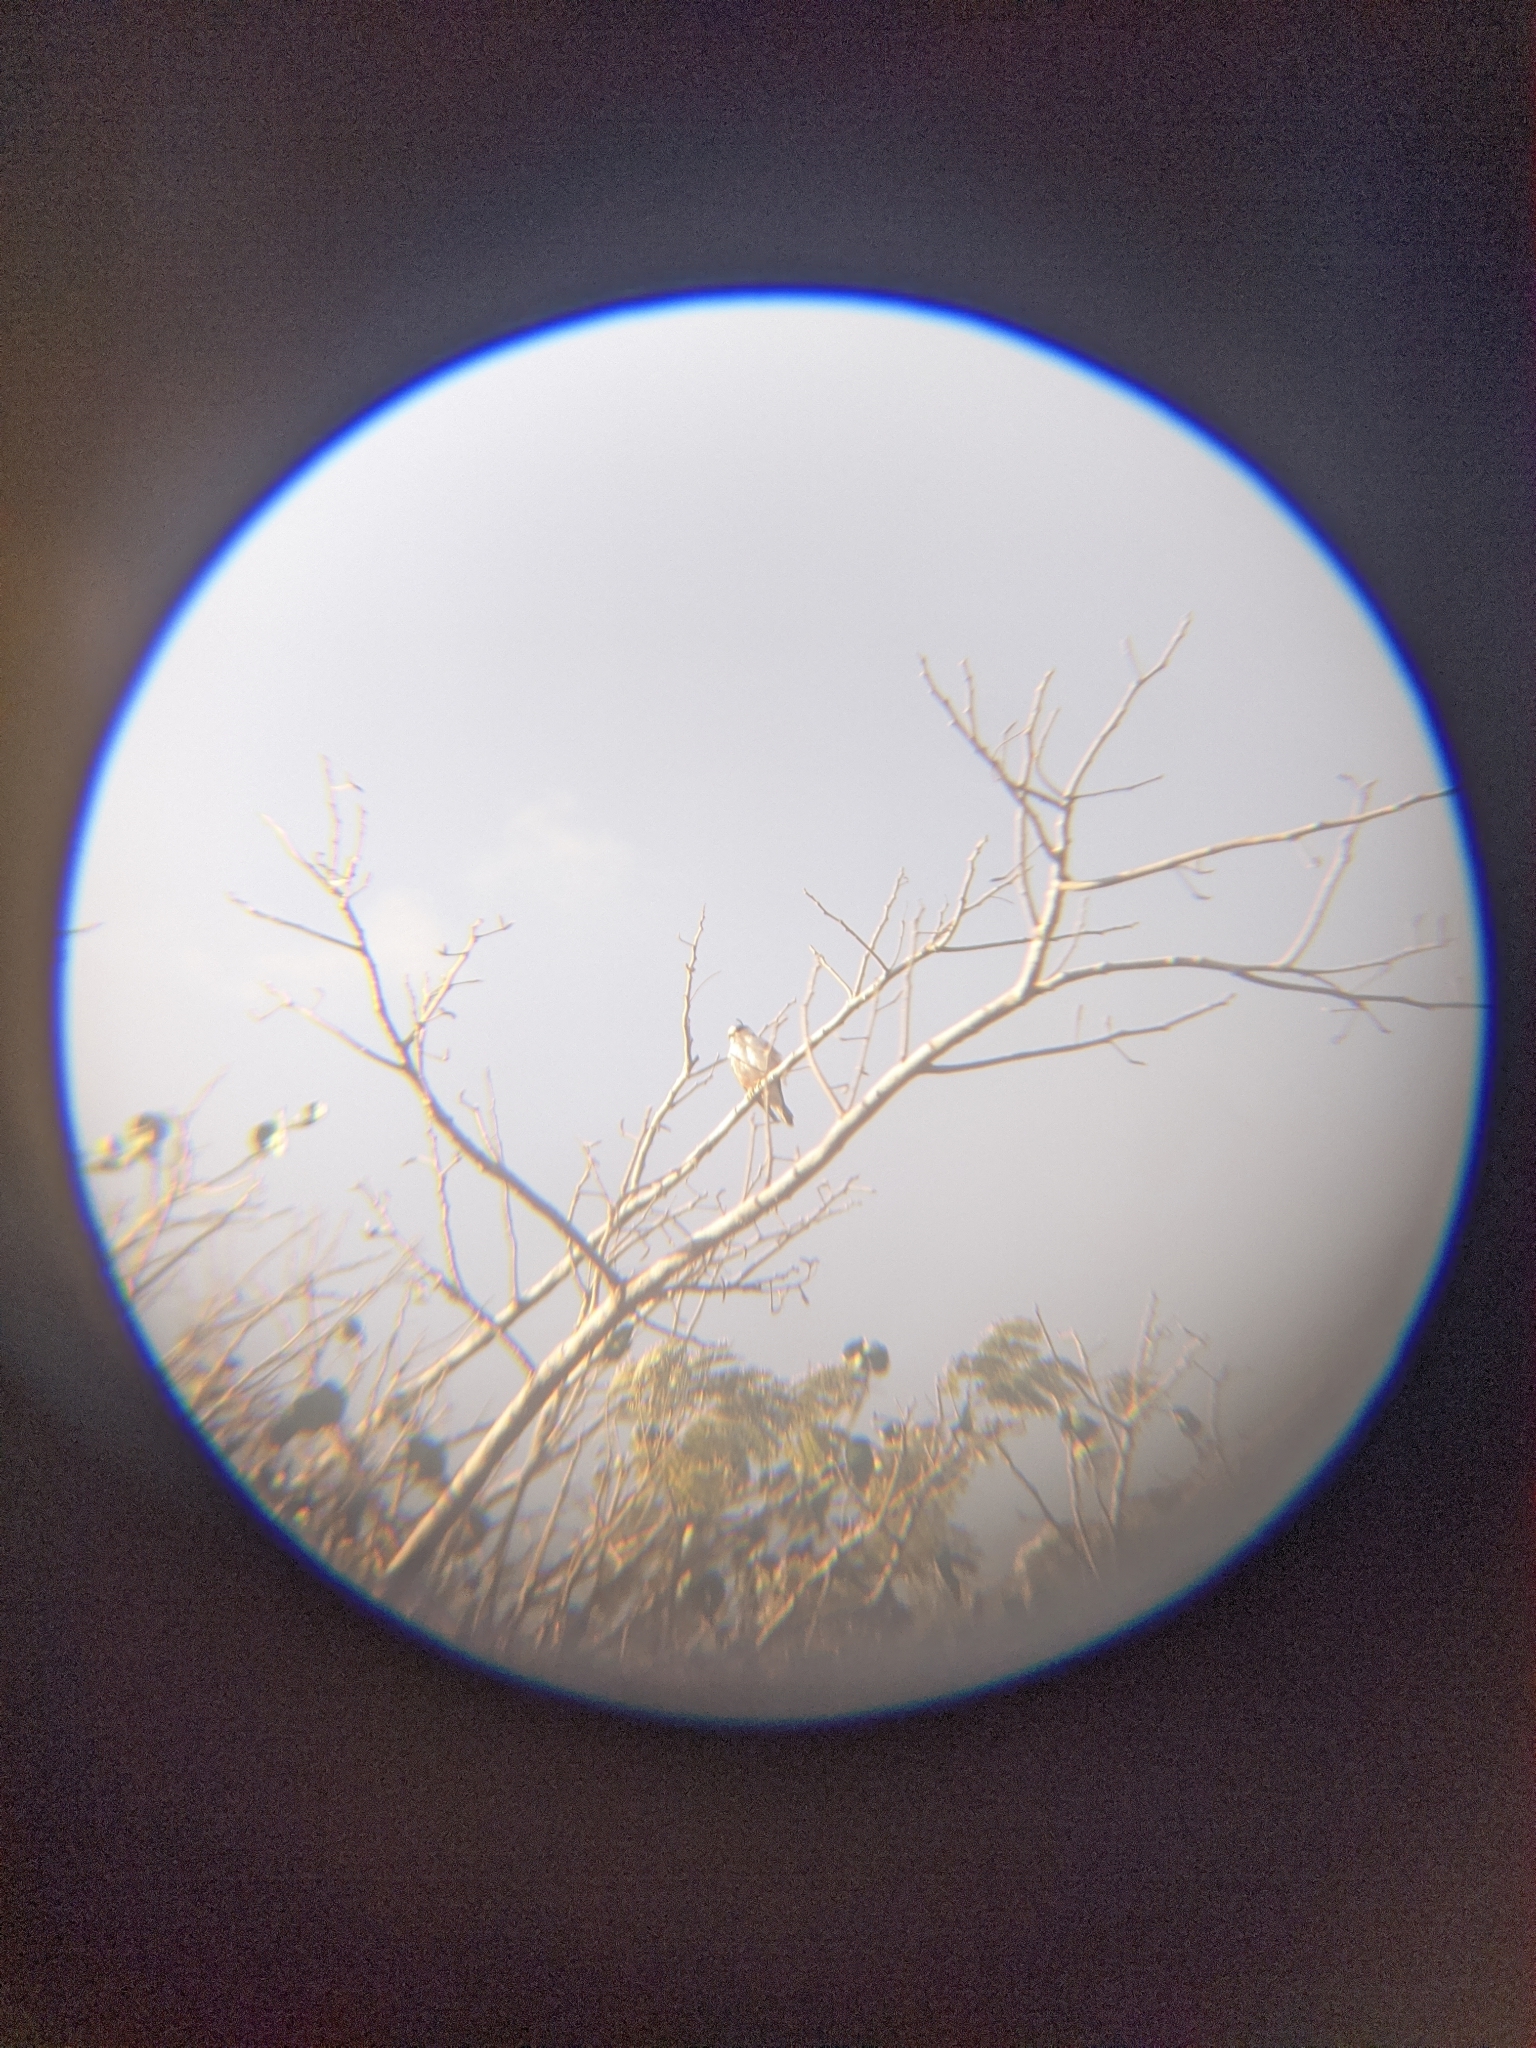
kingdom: Animalia
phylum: Chordata
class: Aves
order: Accipitriformes
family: Accipitridae
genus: Gampsonyx
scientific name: Gampsonyx swainsonii
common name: Pearl kite
